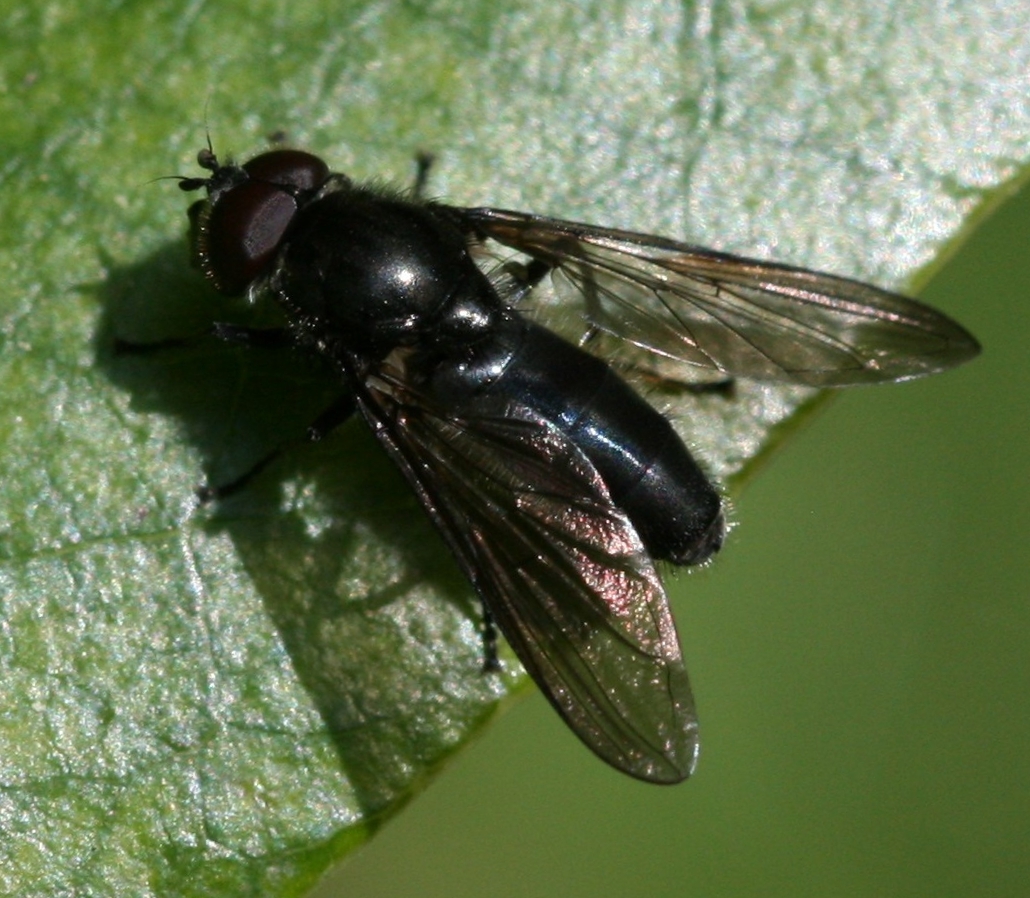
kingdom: Animalia
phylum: Arthropoda
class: Insecta
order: Diptera
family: Syrphidae
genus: Cheilosia
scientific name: Cheilosia variabilis
